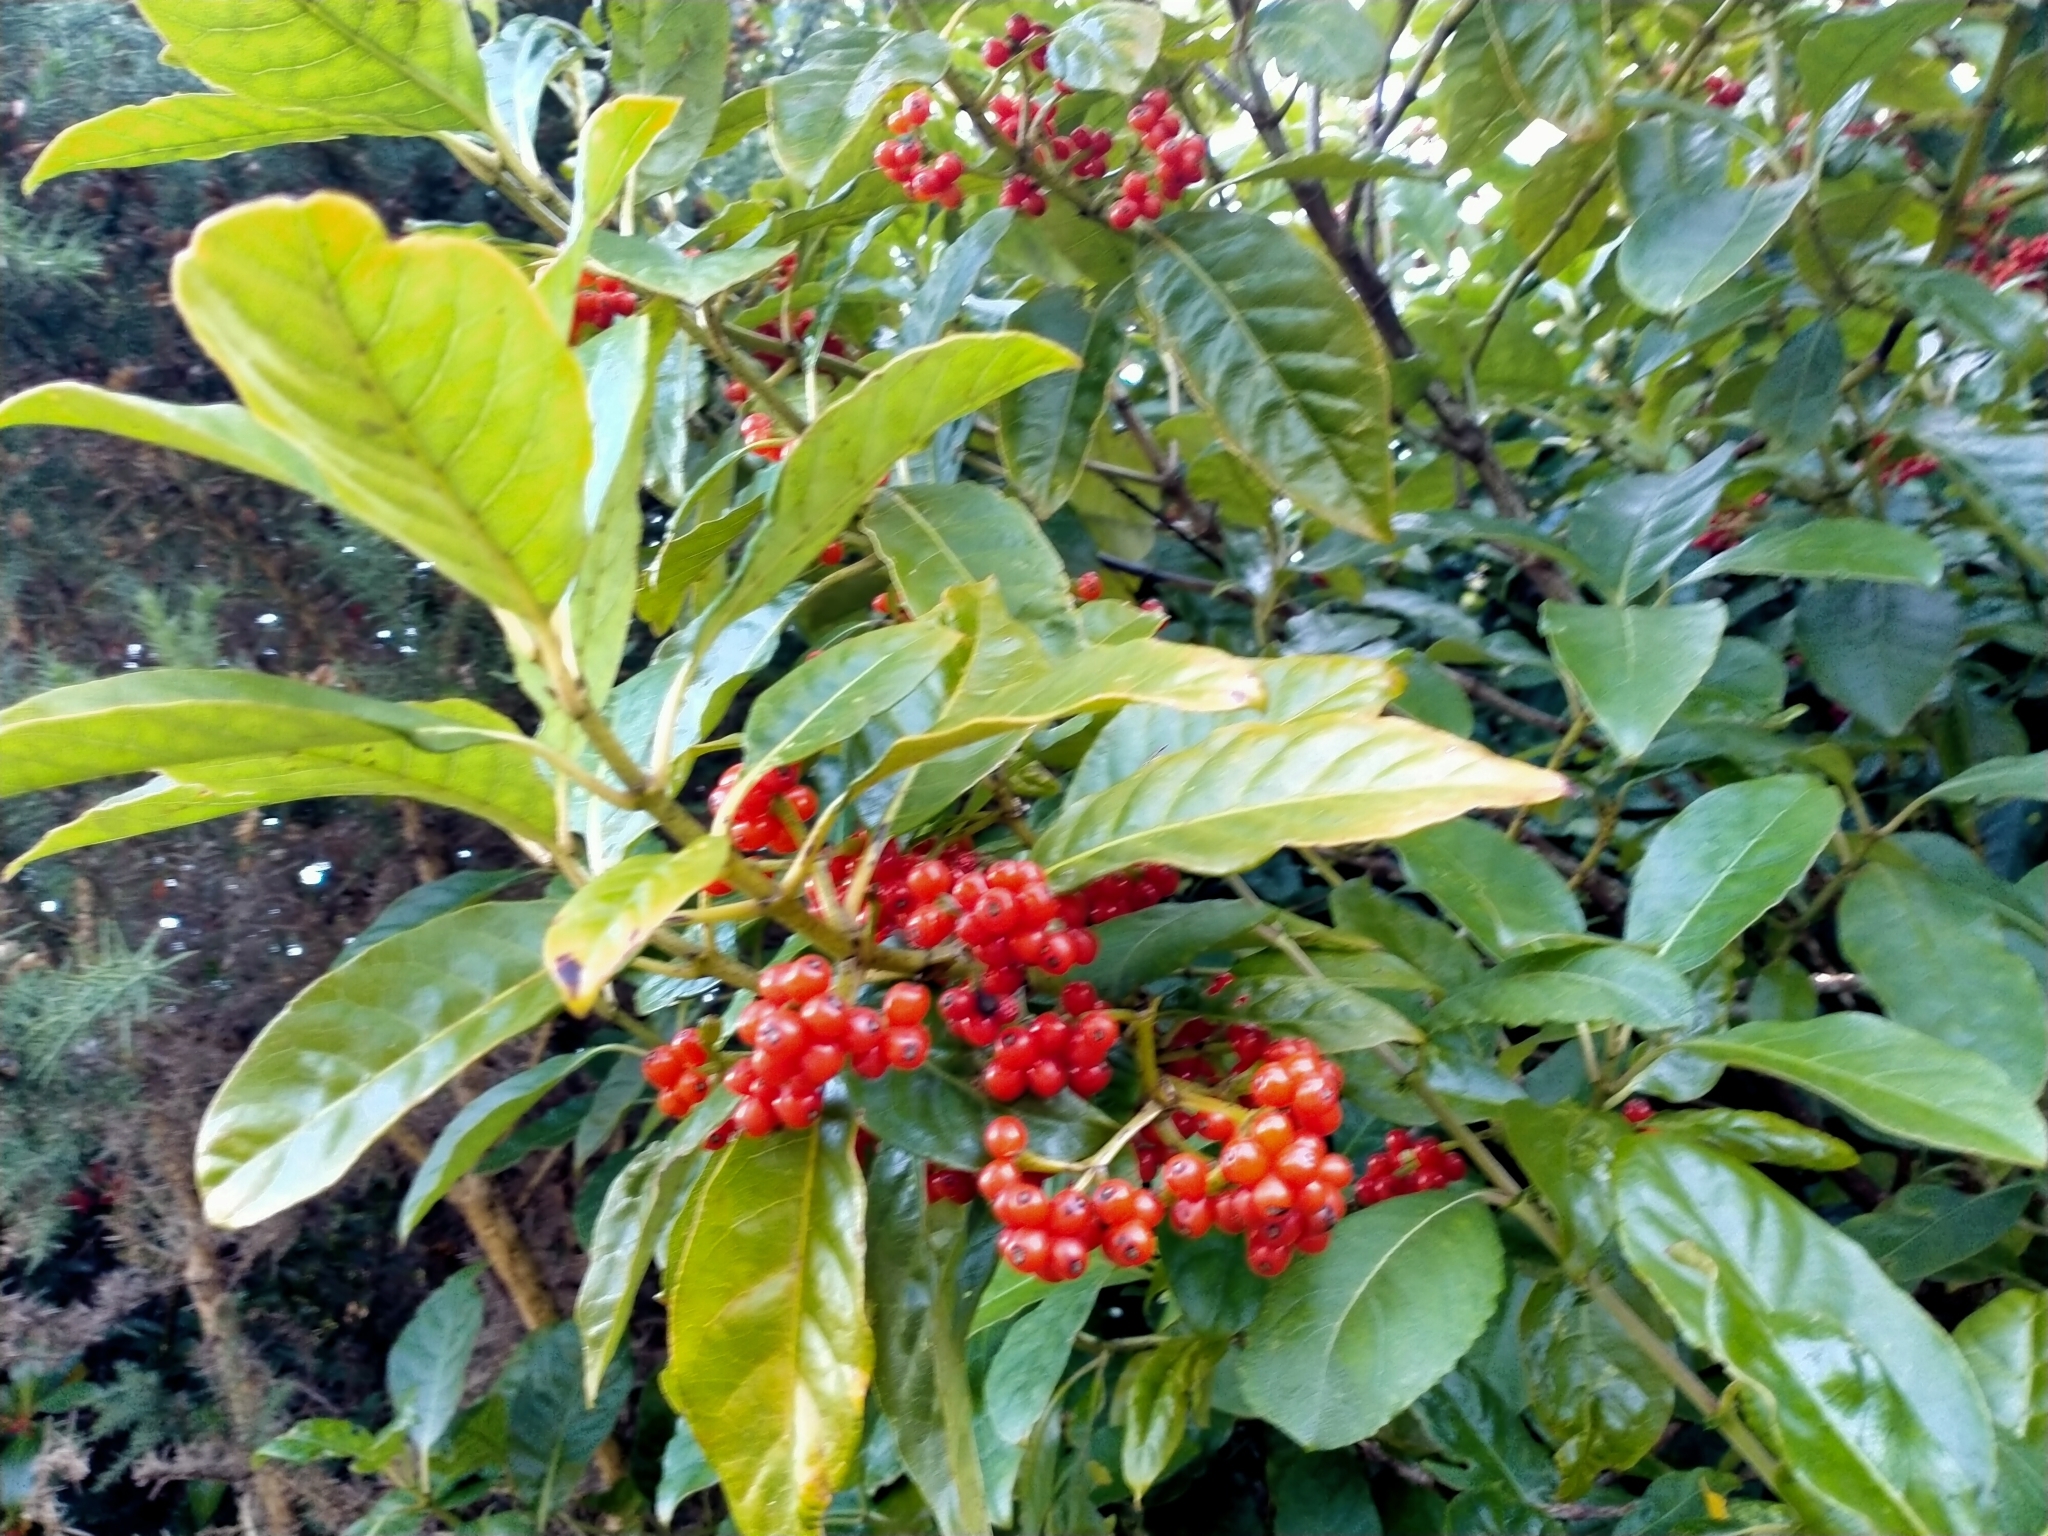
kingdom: Plantae
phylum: Tracheophyta
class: Magnoliopsida
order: Gentianales
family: Rubiaceae
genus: Coprosma
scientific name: Coprosma autumnalis
